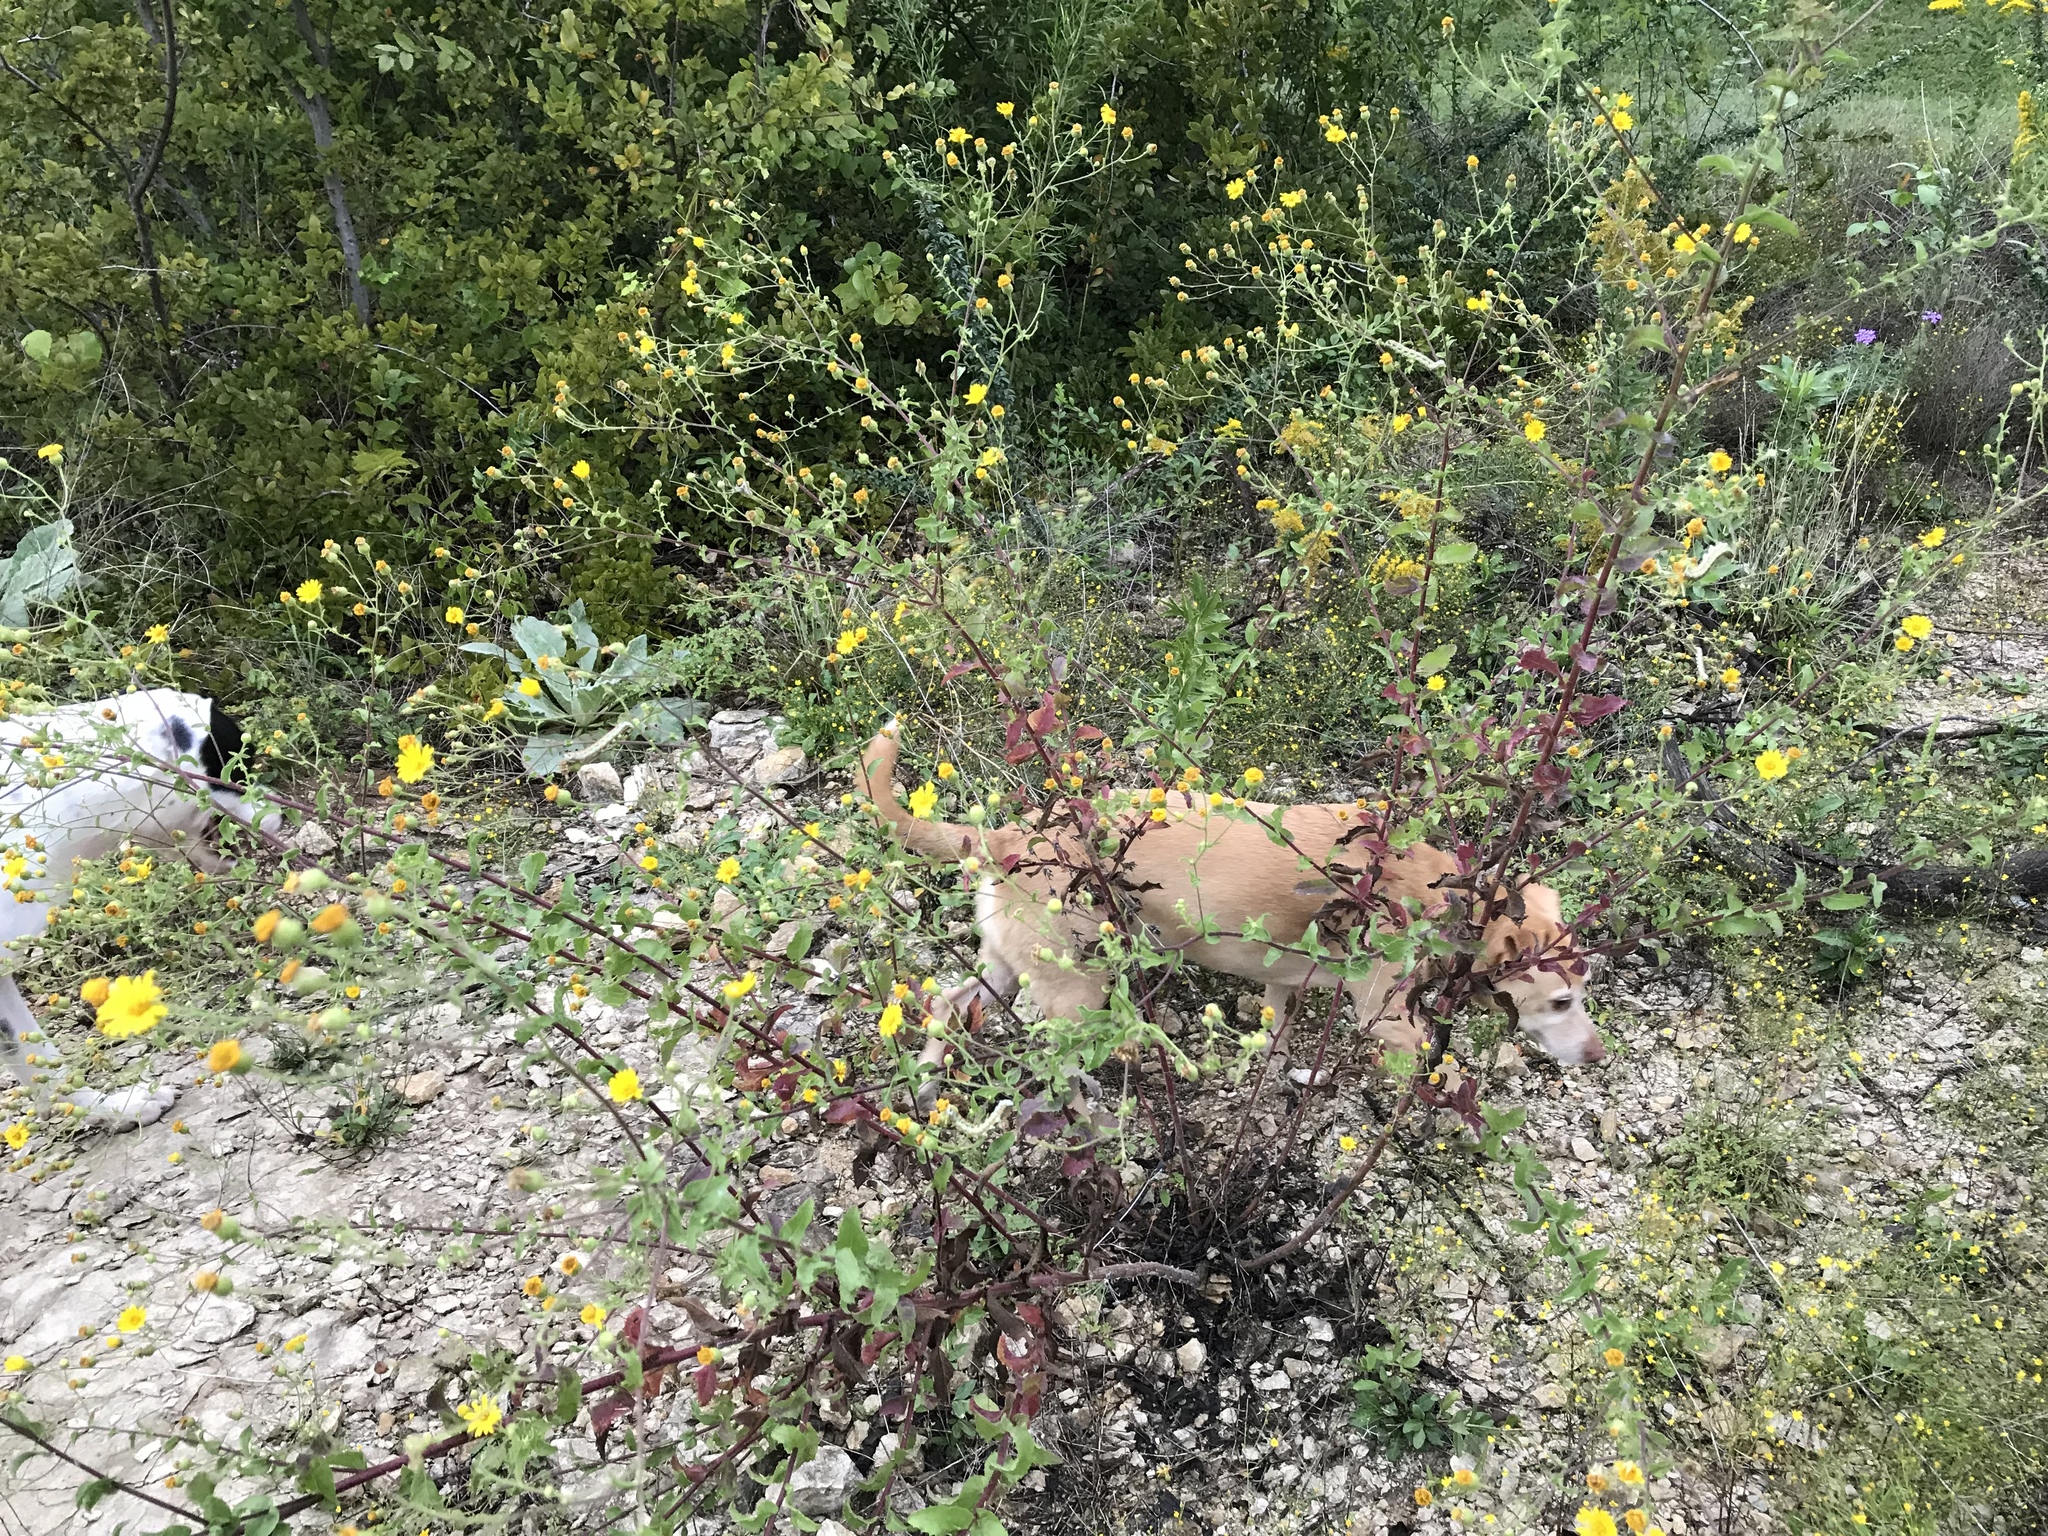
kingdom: Plantae
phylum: Tracheophyta
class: Magnoliopsida
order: Asterales
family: Asteraceae
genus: Heterotheca
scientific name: Heterotheca subaxillaris
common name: Camphorweed
